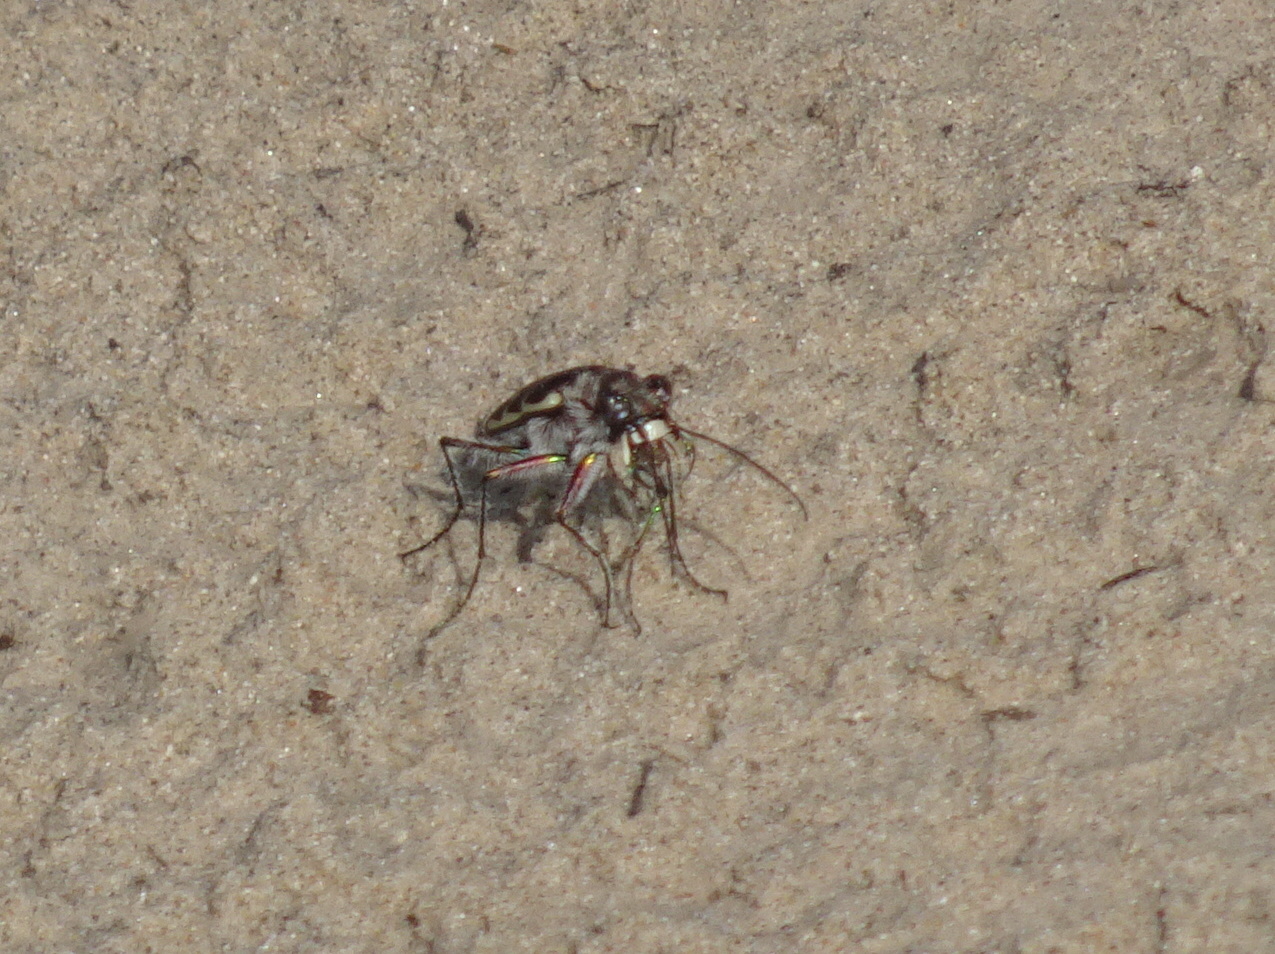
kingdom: Animalia
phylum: Arthropoda
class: Insecta
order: Coleoptera
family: Carabidae
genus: Cicindela
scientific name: Cicindela repanda
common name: Bronzed tiger beetle
